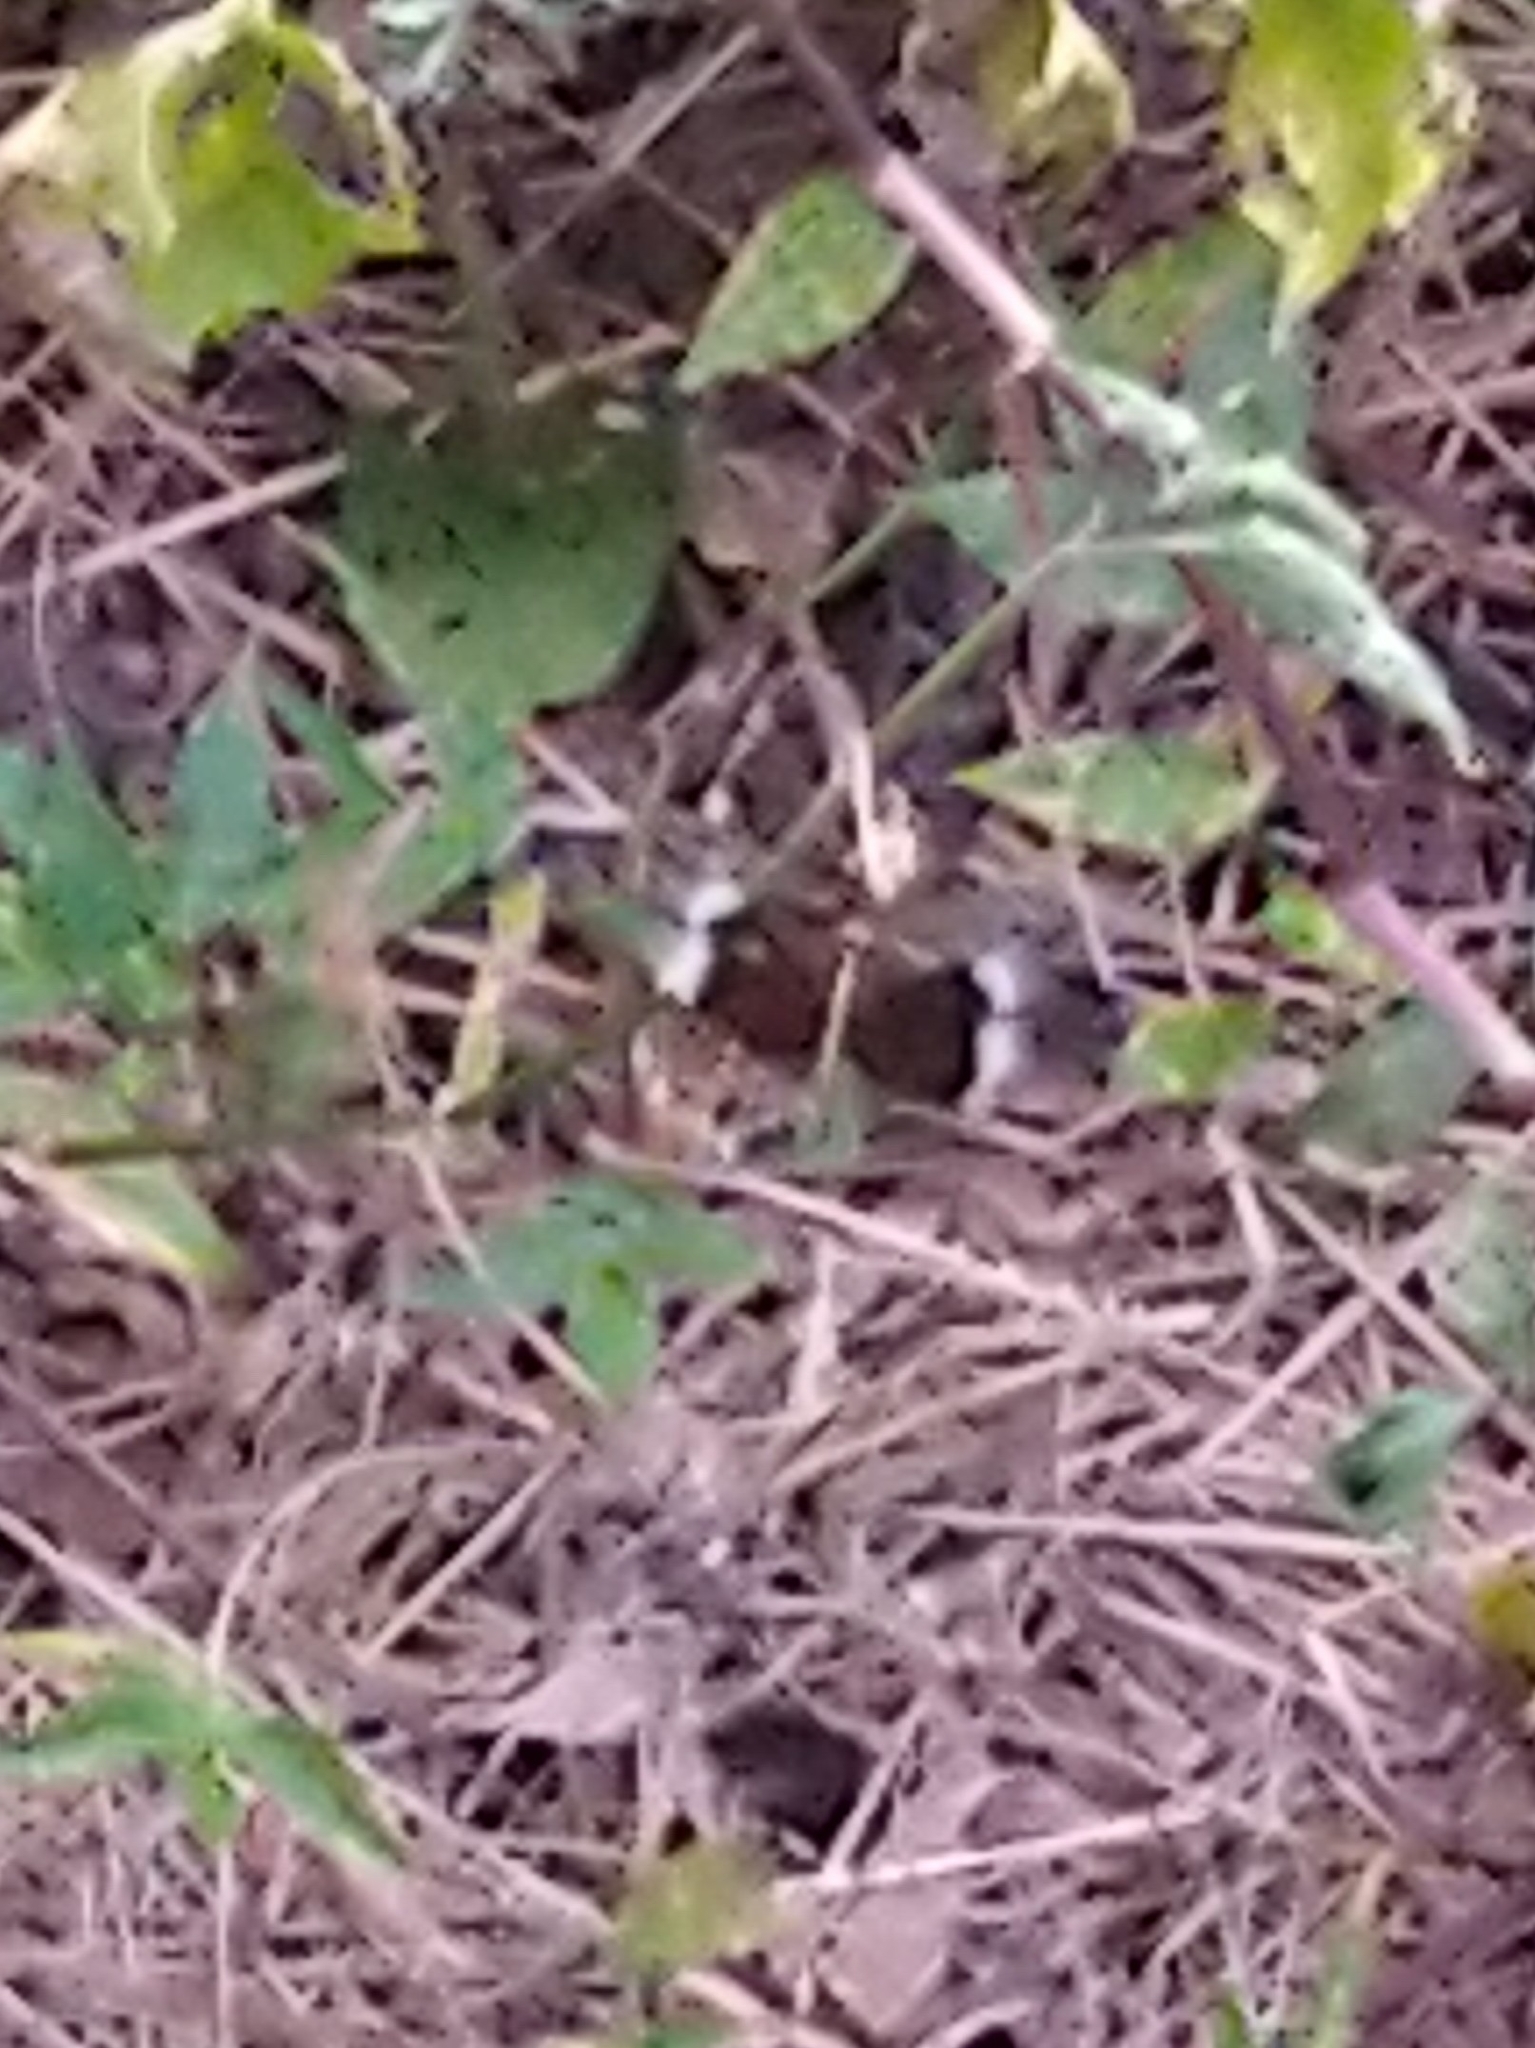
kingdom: Animalia
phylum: Arthropoda
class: Insecta
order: Odonata
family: Libellulidae
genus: Neurothemis
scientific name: Neurothemis tullia
